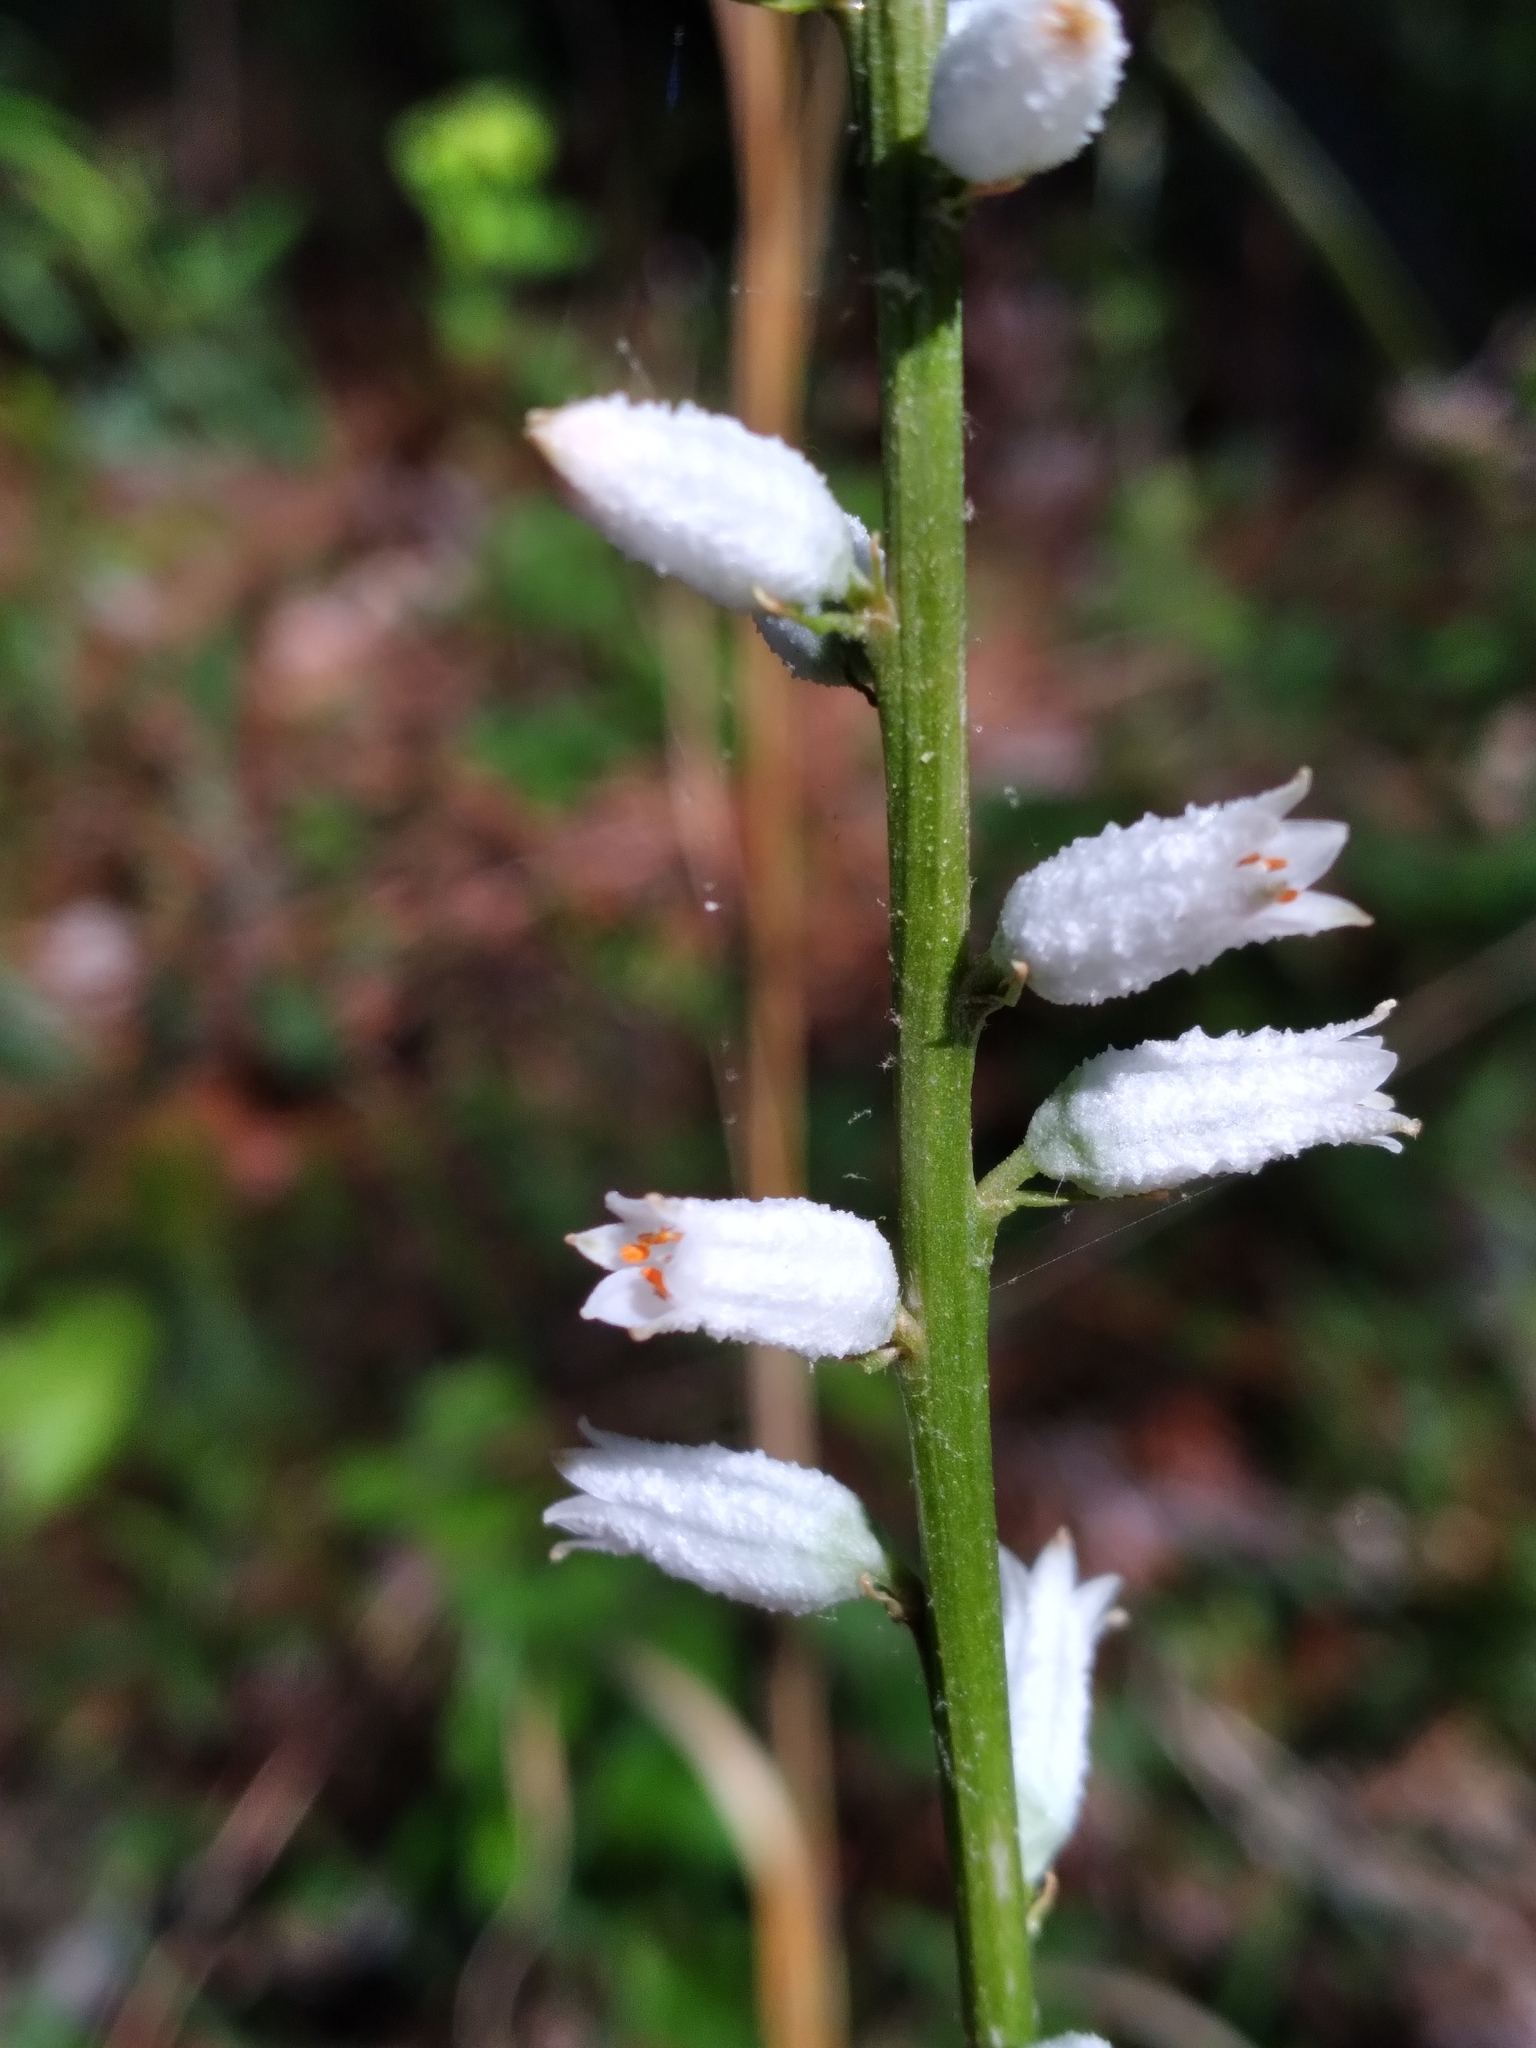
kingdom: Plantae
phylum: Tracheophyta
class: Liliopsida
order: Dioscoreales
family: Nartheciaceae
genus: Aletris
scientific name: Aletris farinosa
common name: Colicroot
